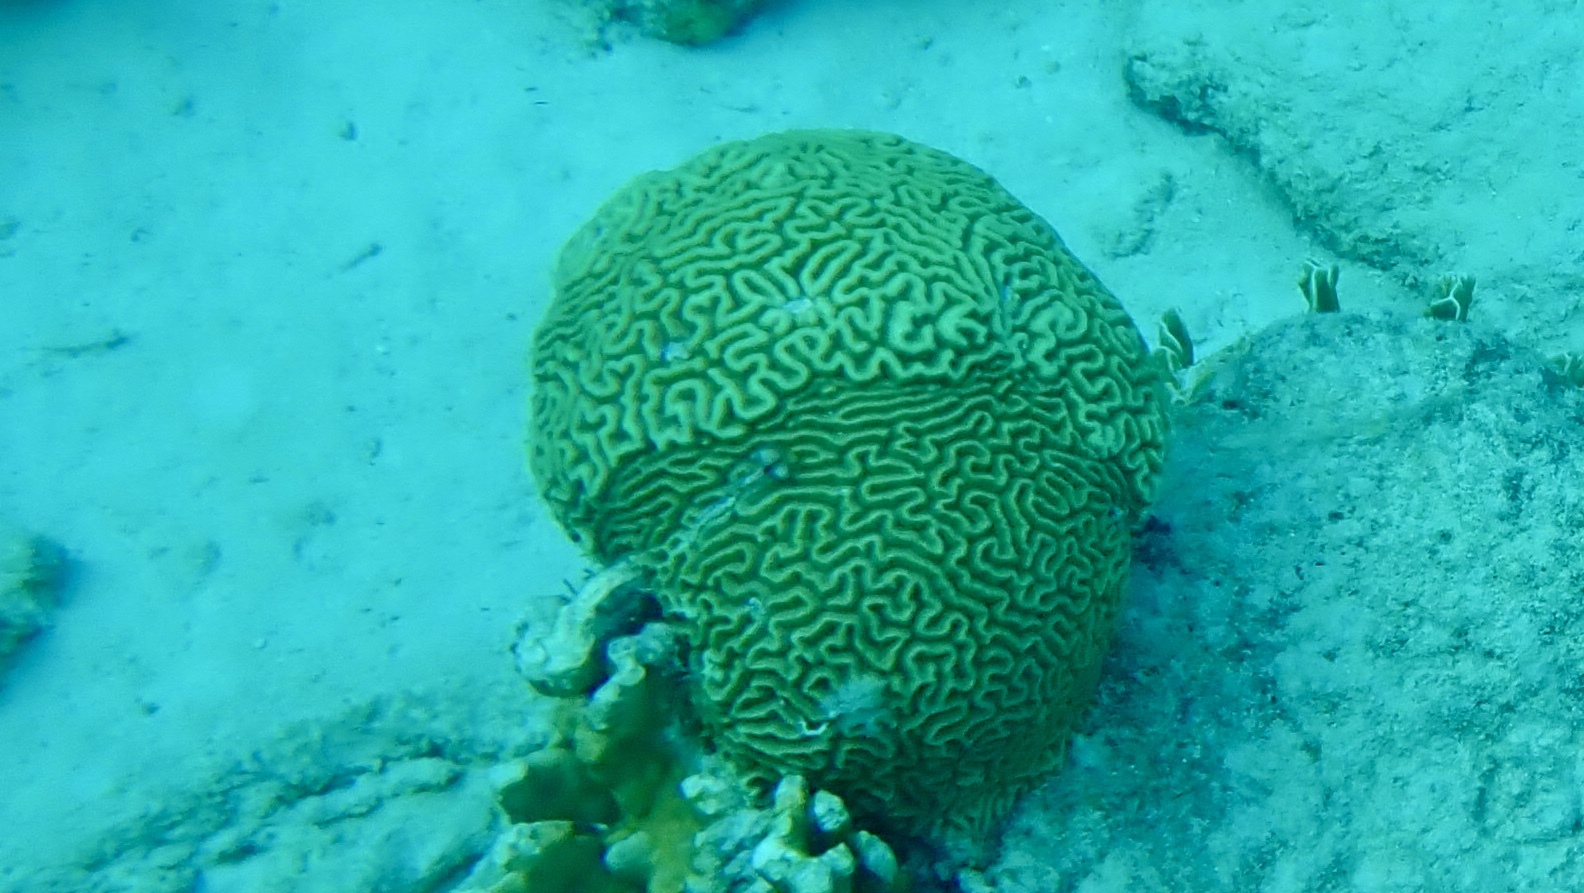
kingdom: Animalia
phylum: Cnidaria
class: Anthozoa
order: Scleractinia
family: Faviidae
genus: Pseudodiploria
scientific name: Pseudodiploria strigosa
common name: Symmetrical brain coral
